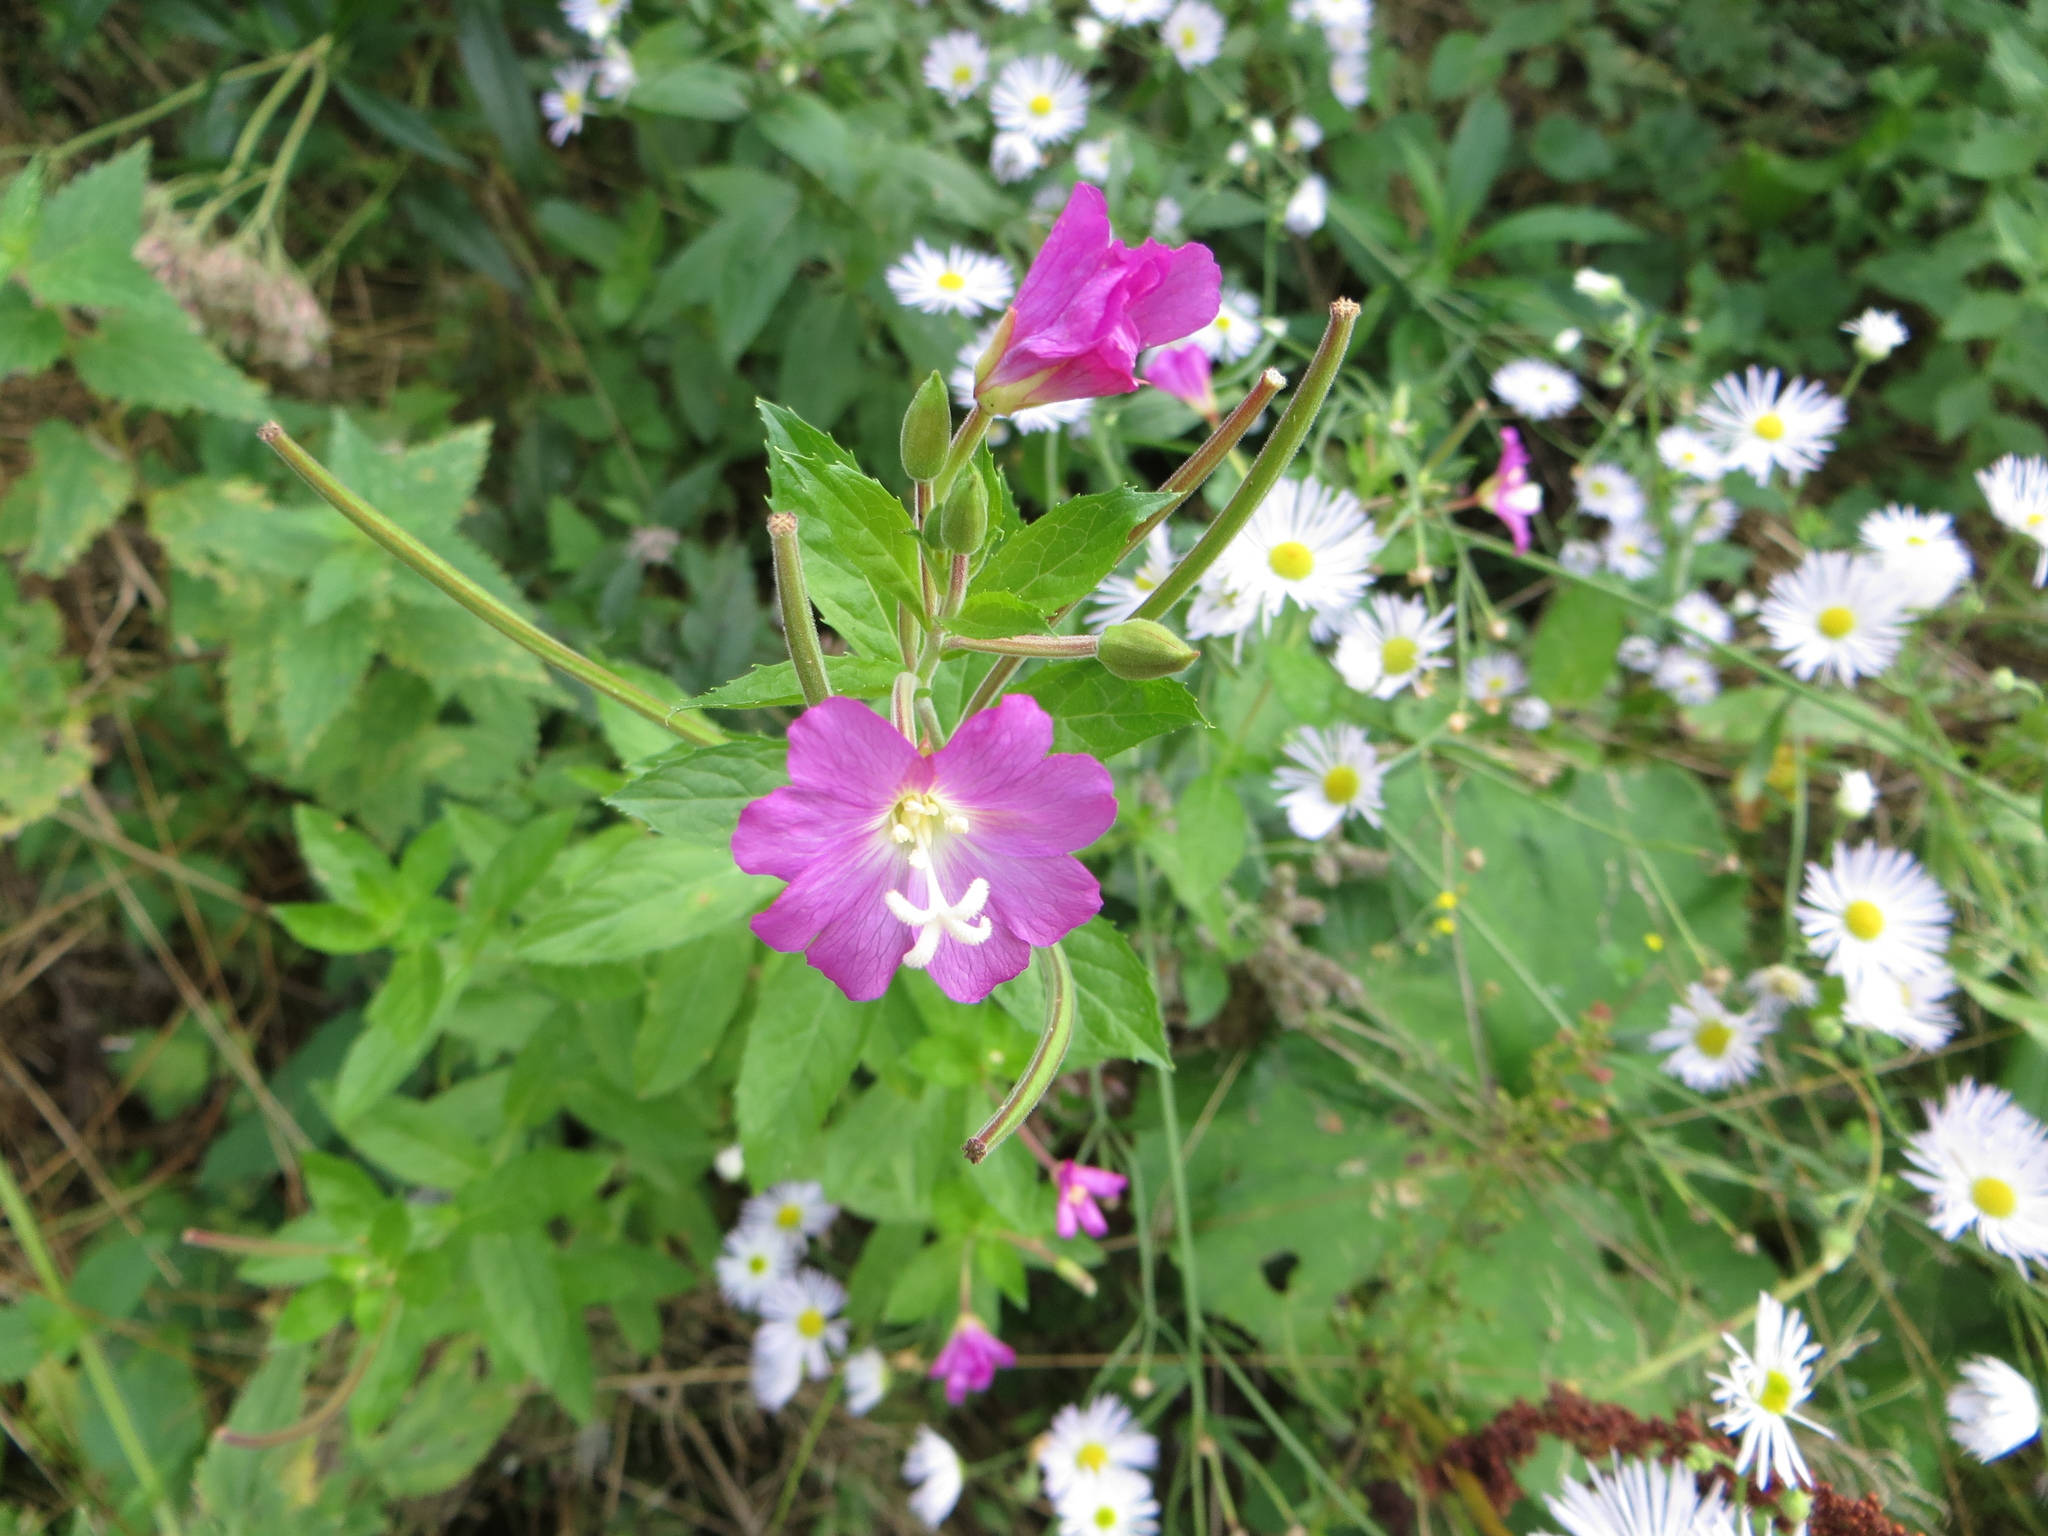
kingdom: Plantae
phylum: Tracheophyta
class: Magnoliopsida
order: Myrtales
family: Onagraceae
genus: Epilobium
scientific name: Epilobium hirsutum
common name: Great willowherb
